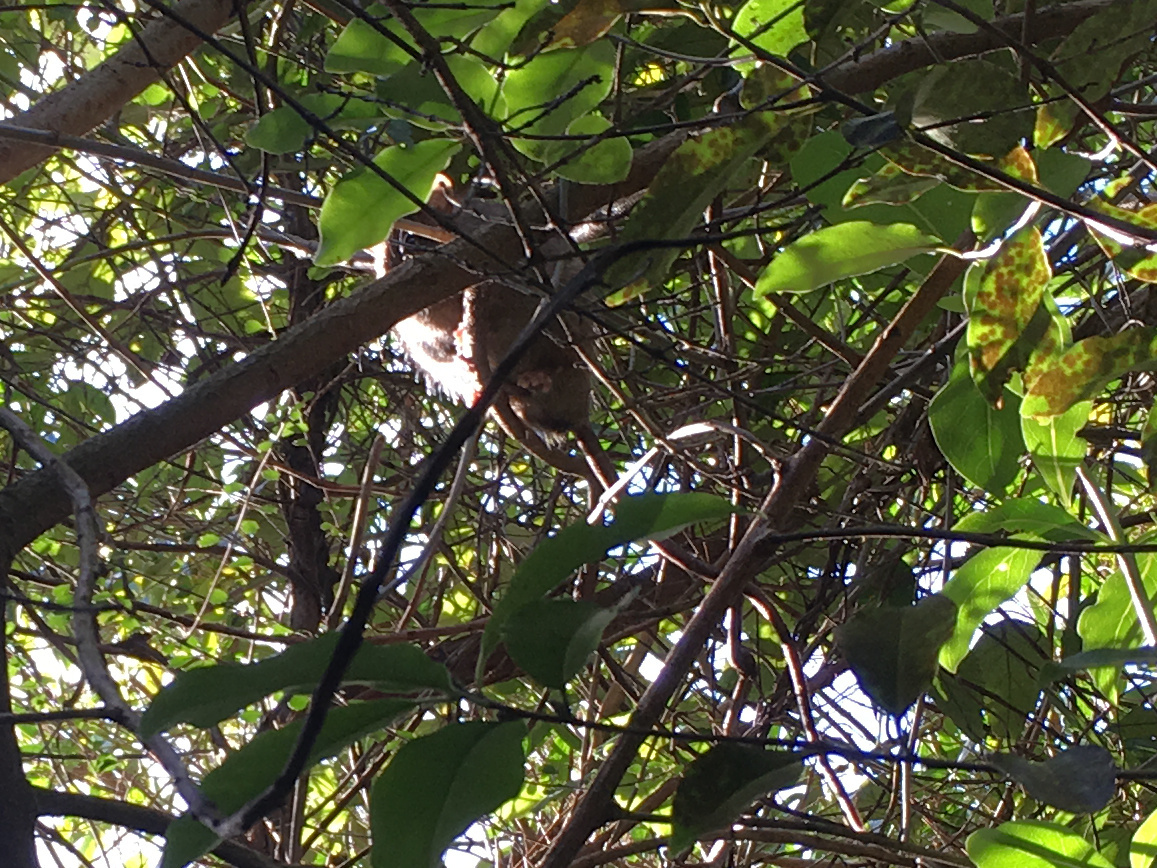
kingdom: Animalia
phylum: Chordata
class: Mammalia
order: Rodentia
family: Muridae
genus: Rattus
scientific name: Rattus rattus
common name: Black rat
